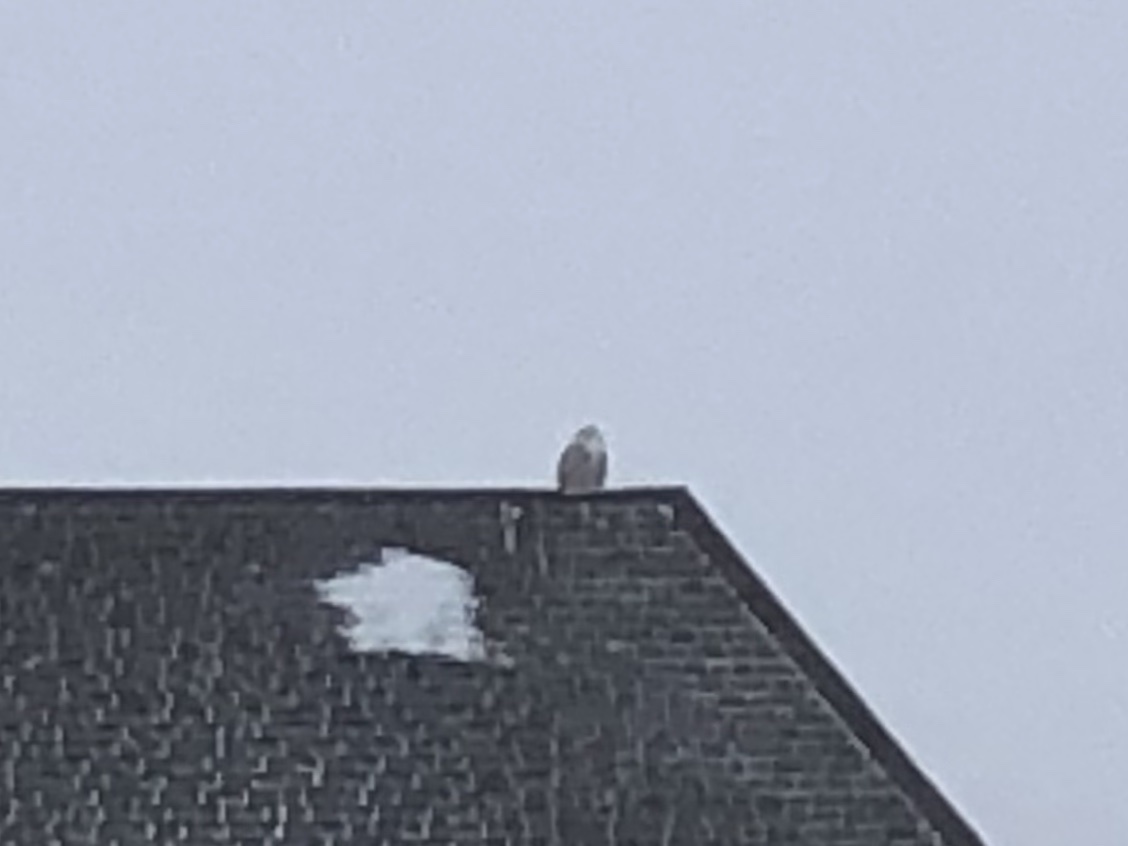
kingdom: Animalia
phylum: Chordata
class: Aves
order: Strigiformes
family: Strigidae
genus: Bubo
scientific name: Bubo scandiacus
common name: Snowy owl
